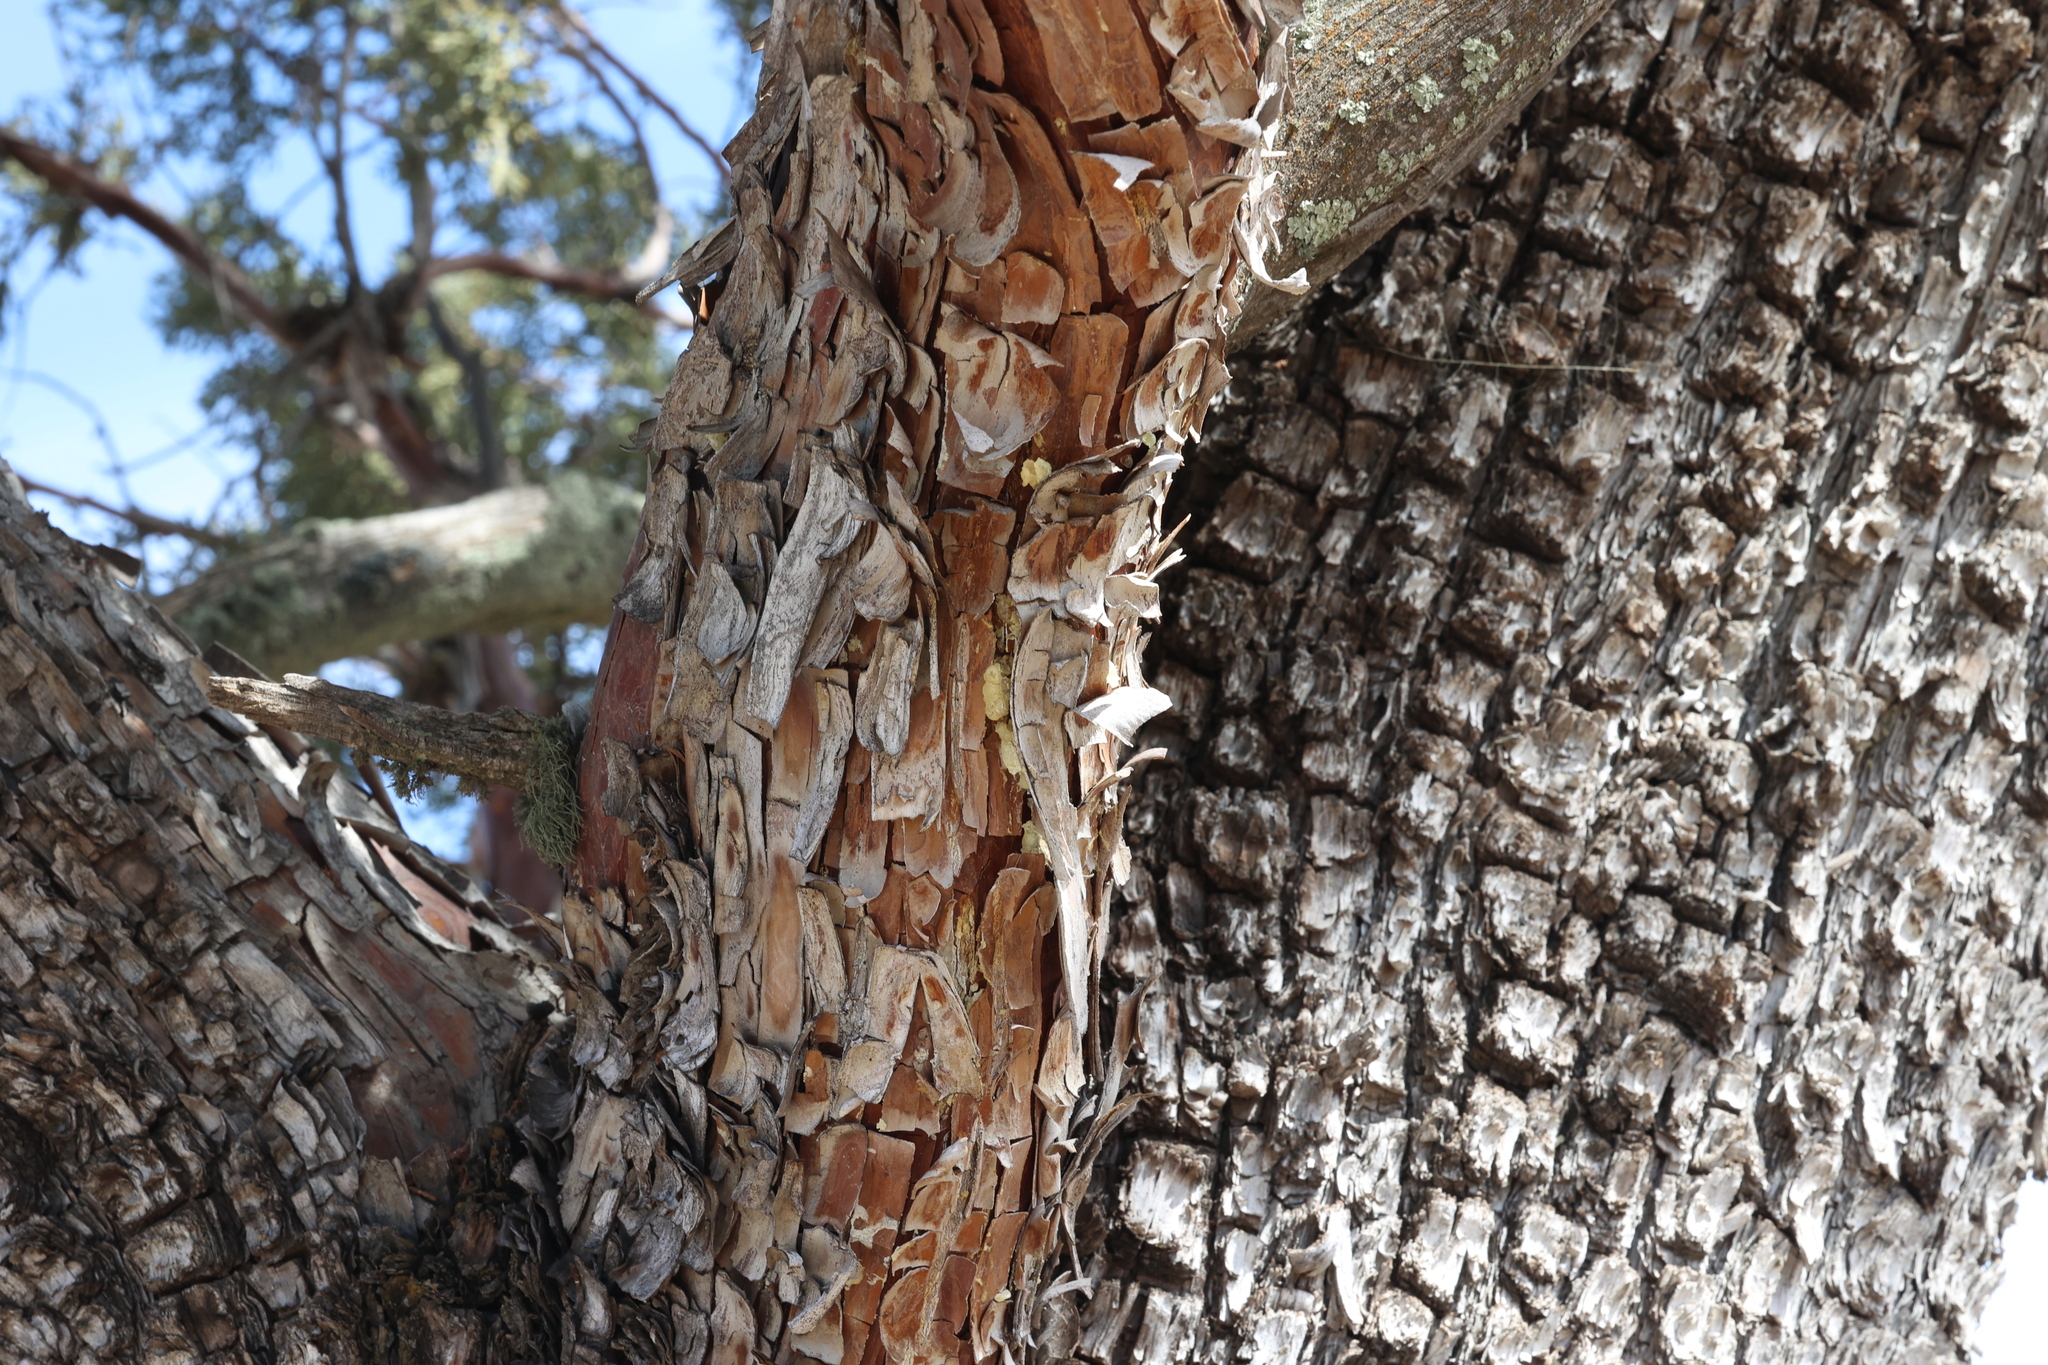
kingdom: Plantae
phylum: Tracheophyta
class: Pinopsida
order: Pinales
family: Cupressaceae
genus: Juniperus
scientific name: Juniperus deppeana
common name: Alligator juniper
